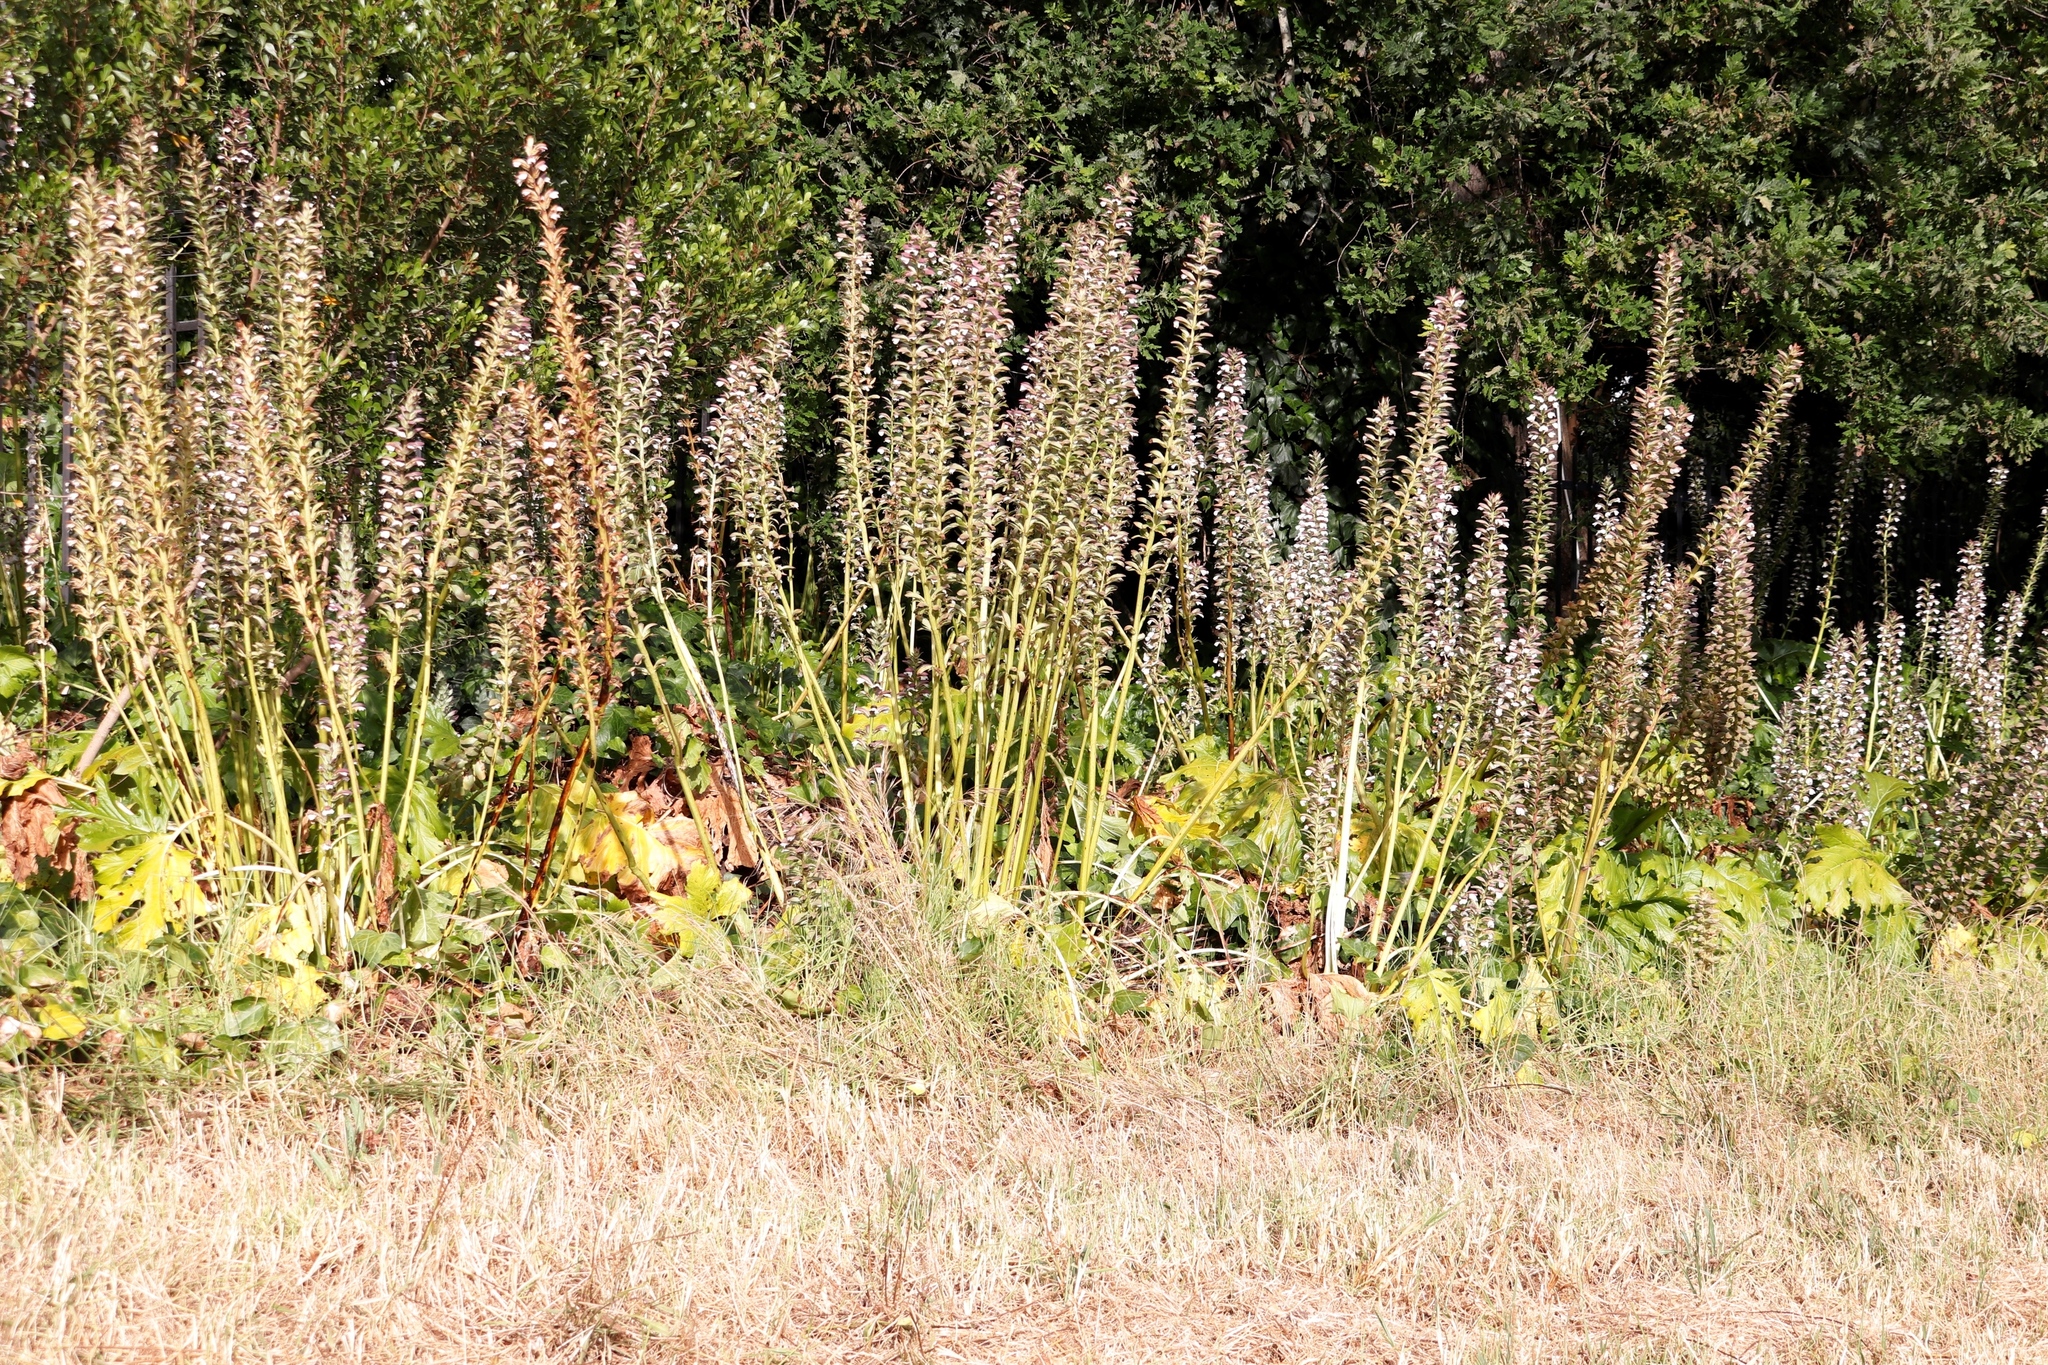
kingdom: Plantae
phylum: Tracheophyta
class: Magnoliopsida
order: Lamiales
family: Acanthaceae
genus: Acanthus
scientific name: Acanthus mollis
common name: Bear's-breech
